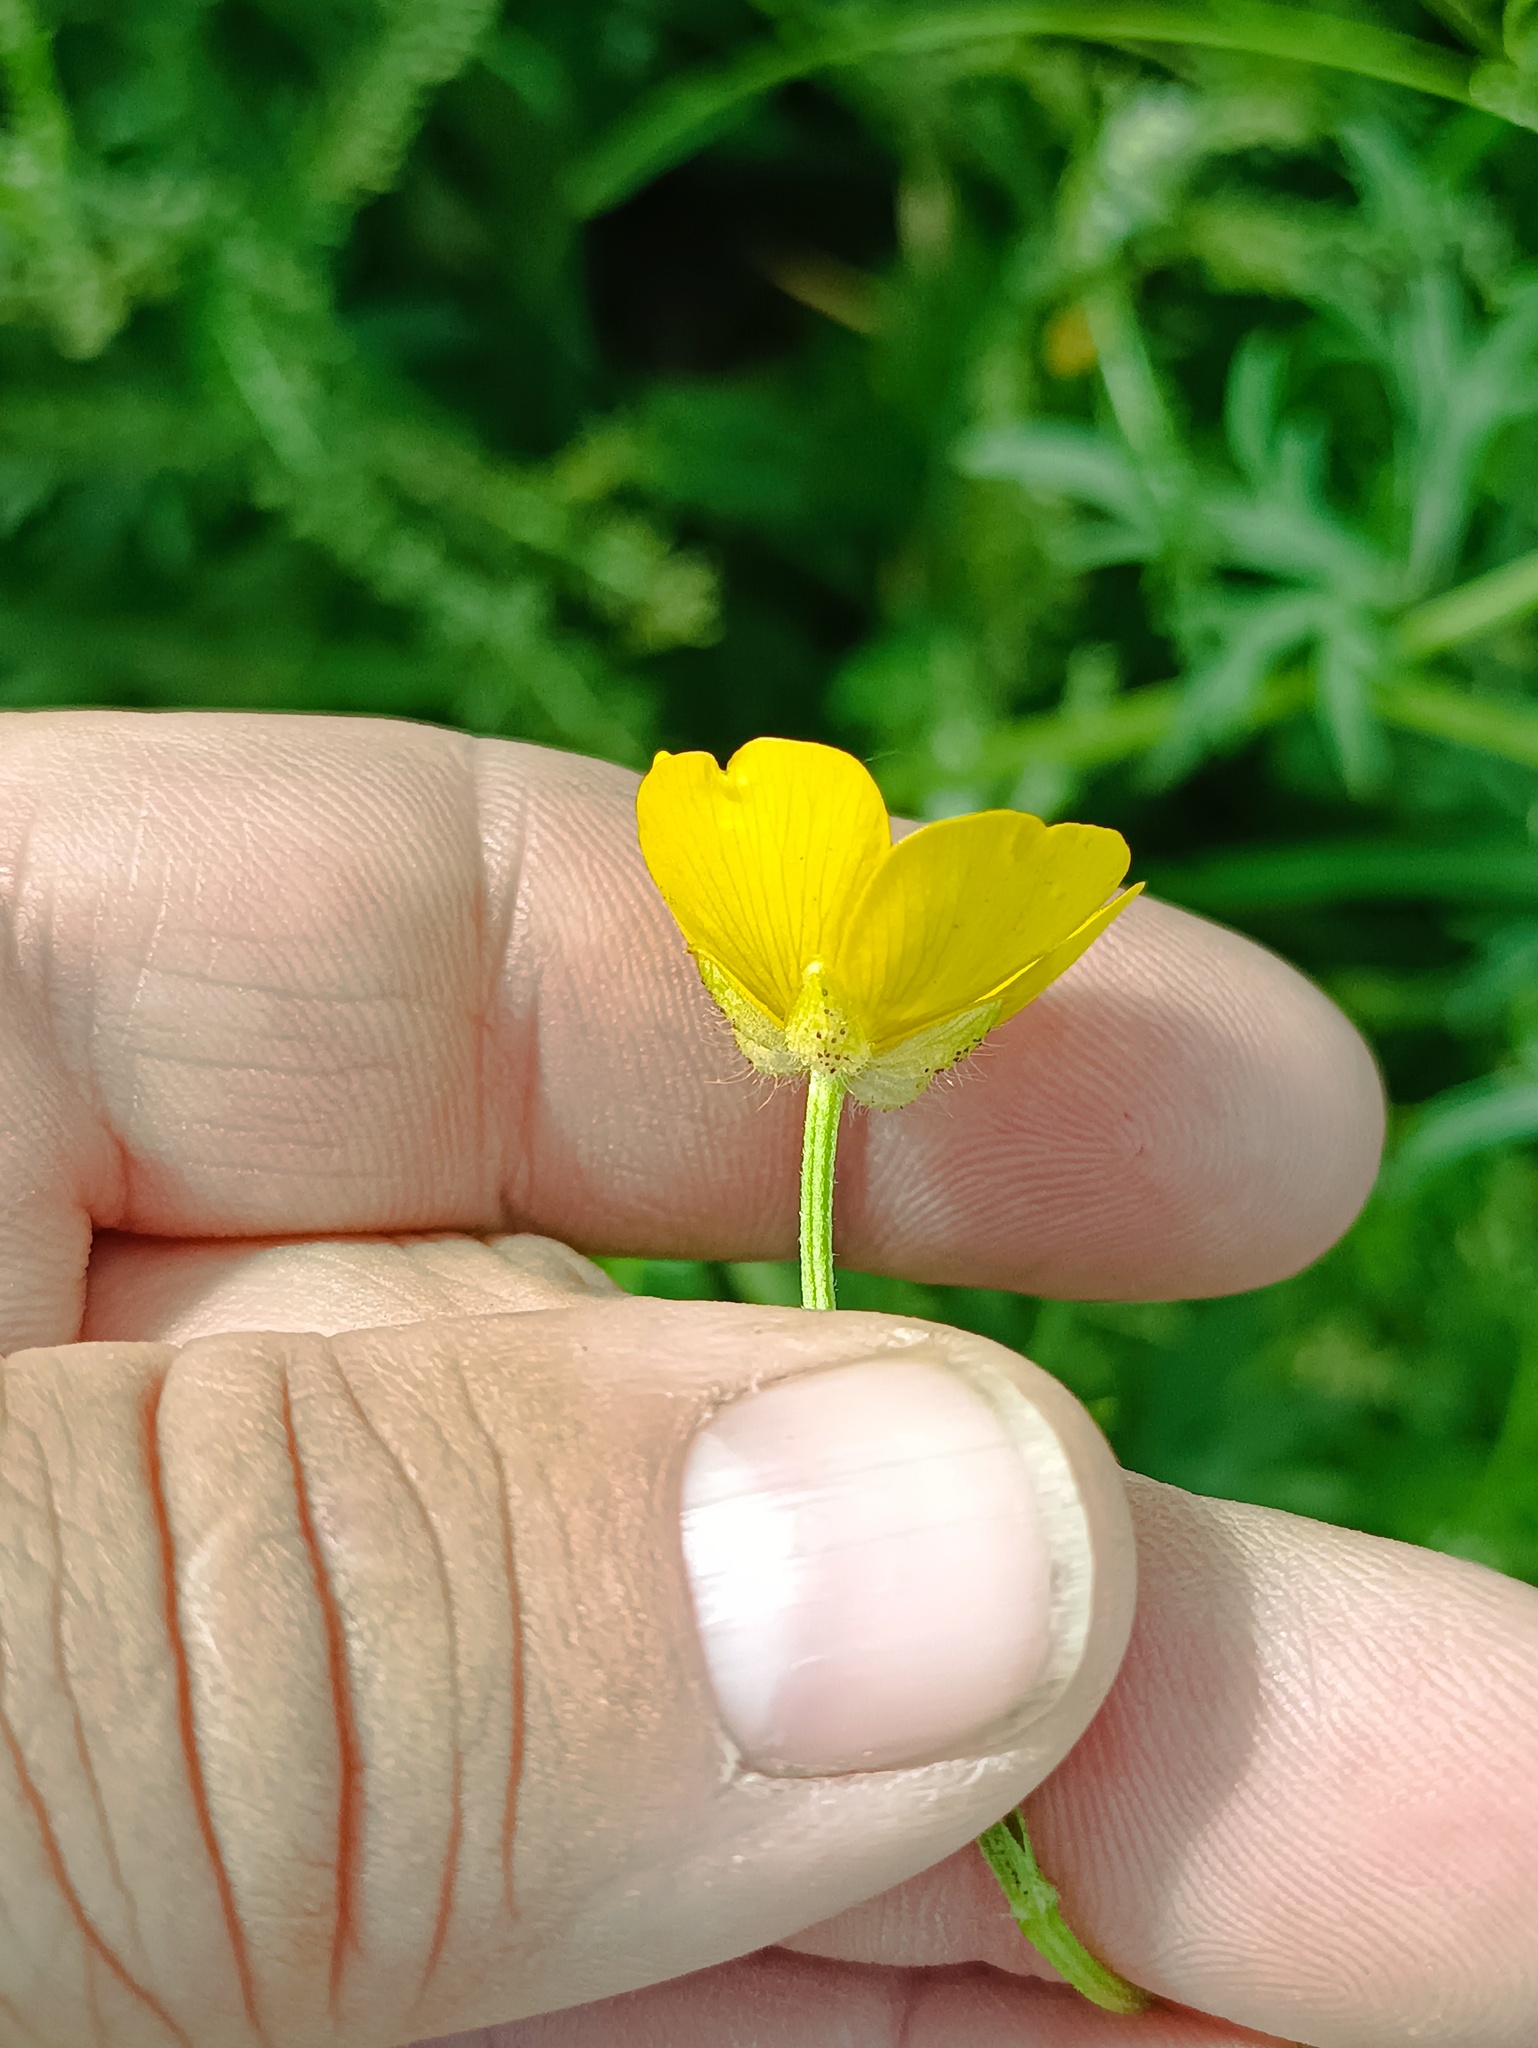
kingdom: Plantae
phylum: Tracheophyta
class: Magnoliopsida
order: Ranunculales
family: Ranunculaceae
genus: Ranunculus
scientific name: Ranunculus polyanthemos
